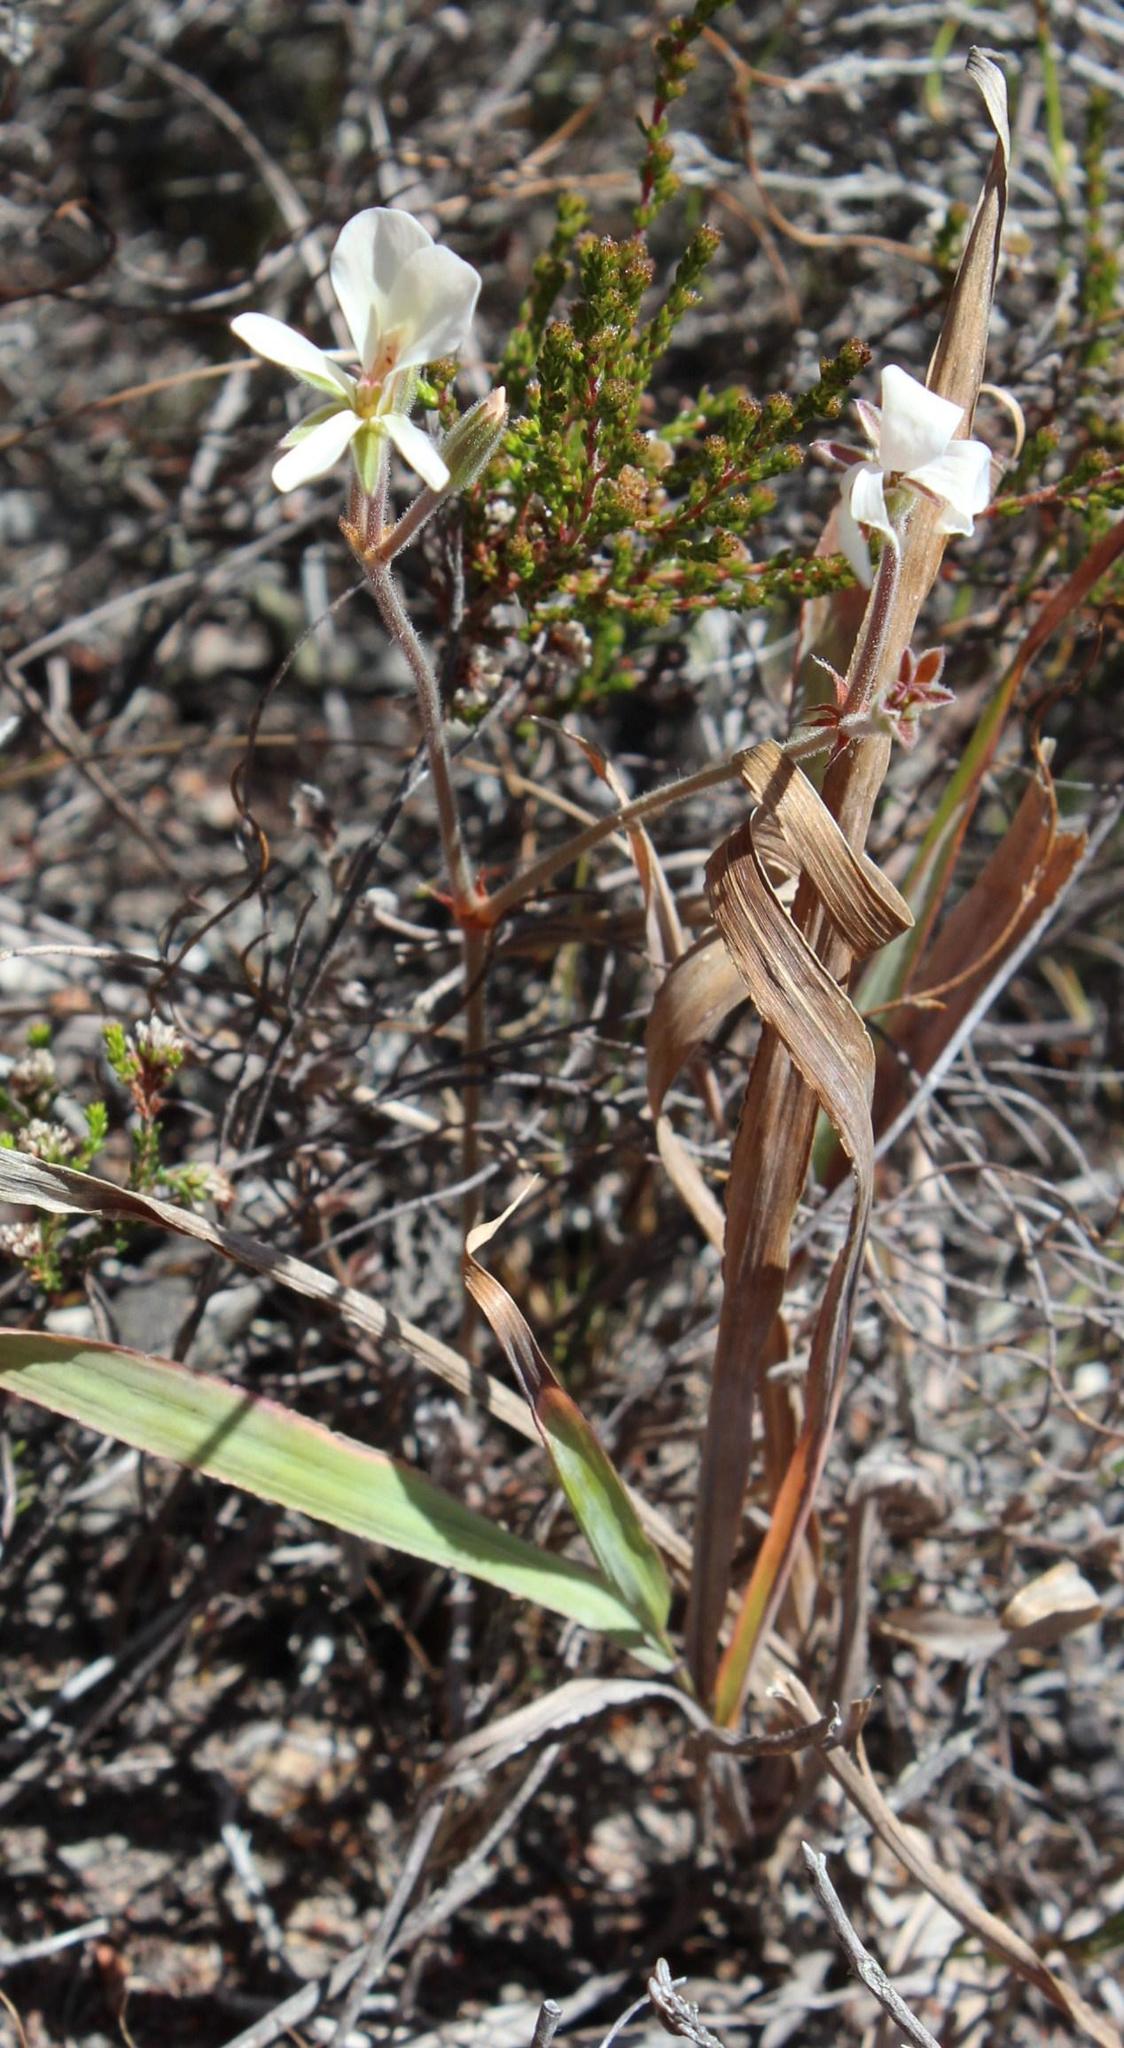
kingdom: Plantae
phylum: Tracheophyta
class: Magnoliopsida
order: Geraniales
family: Geraniaceae
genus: Pelargonium
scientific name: Pelargonium carneum
